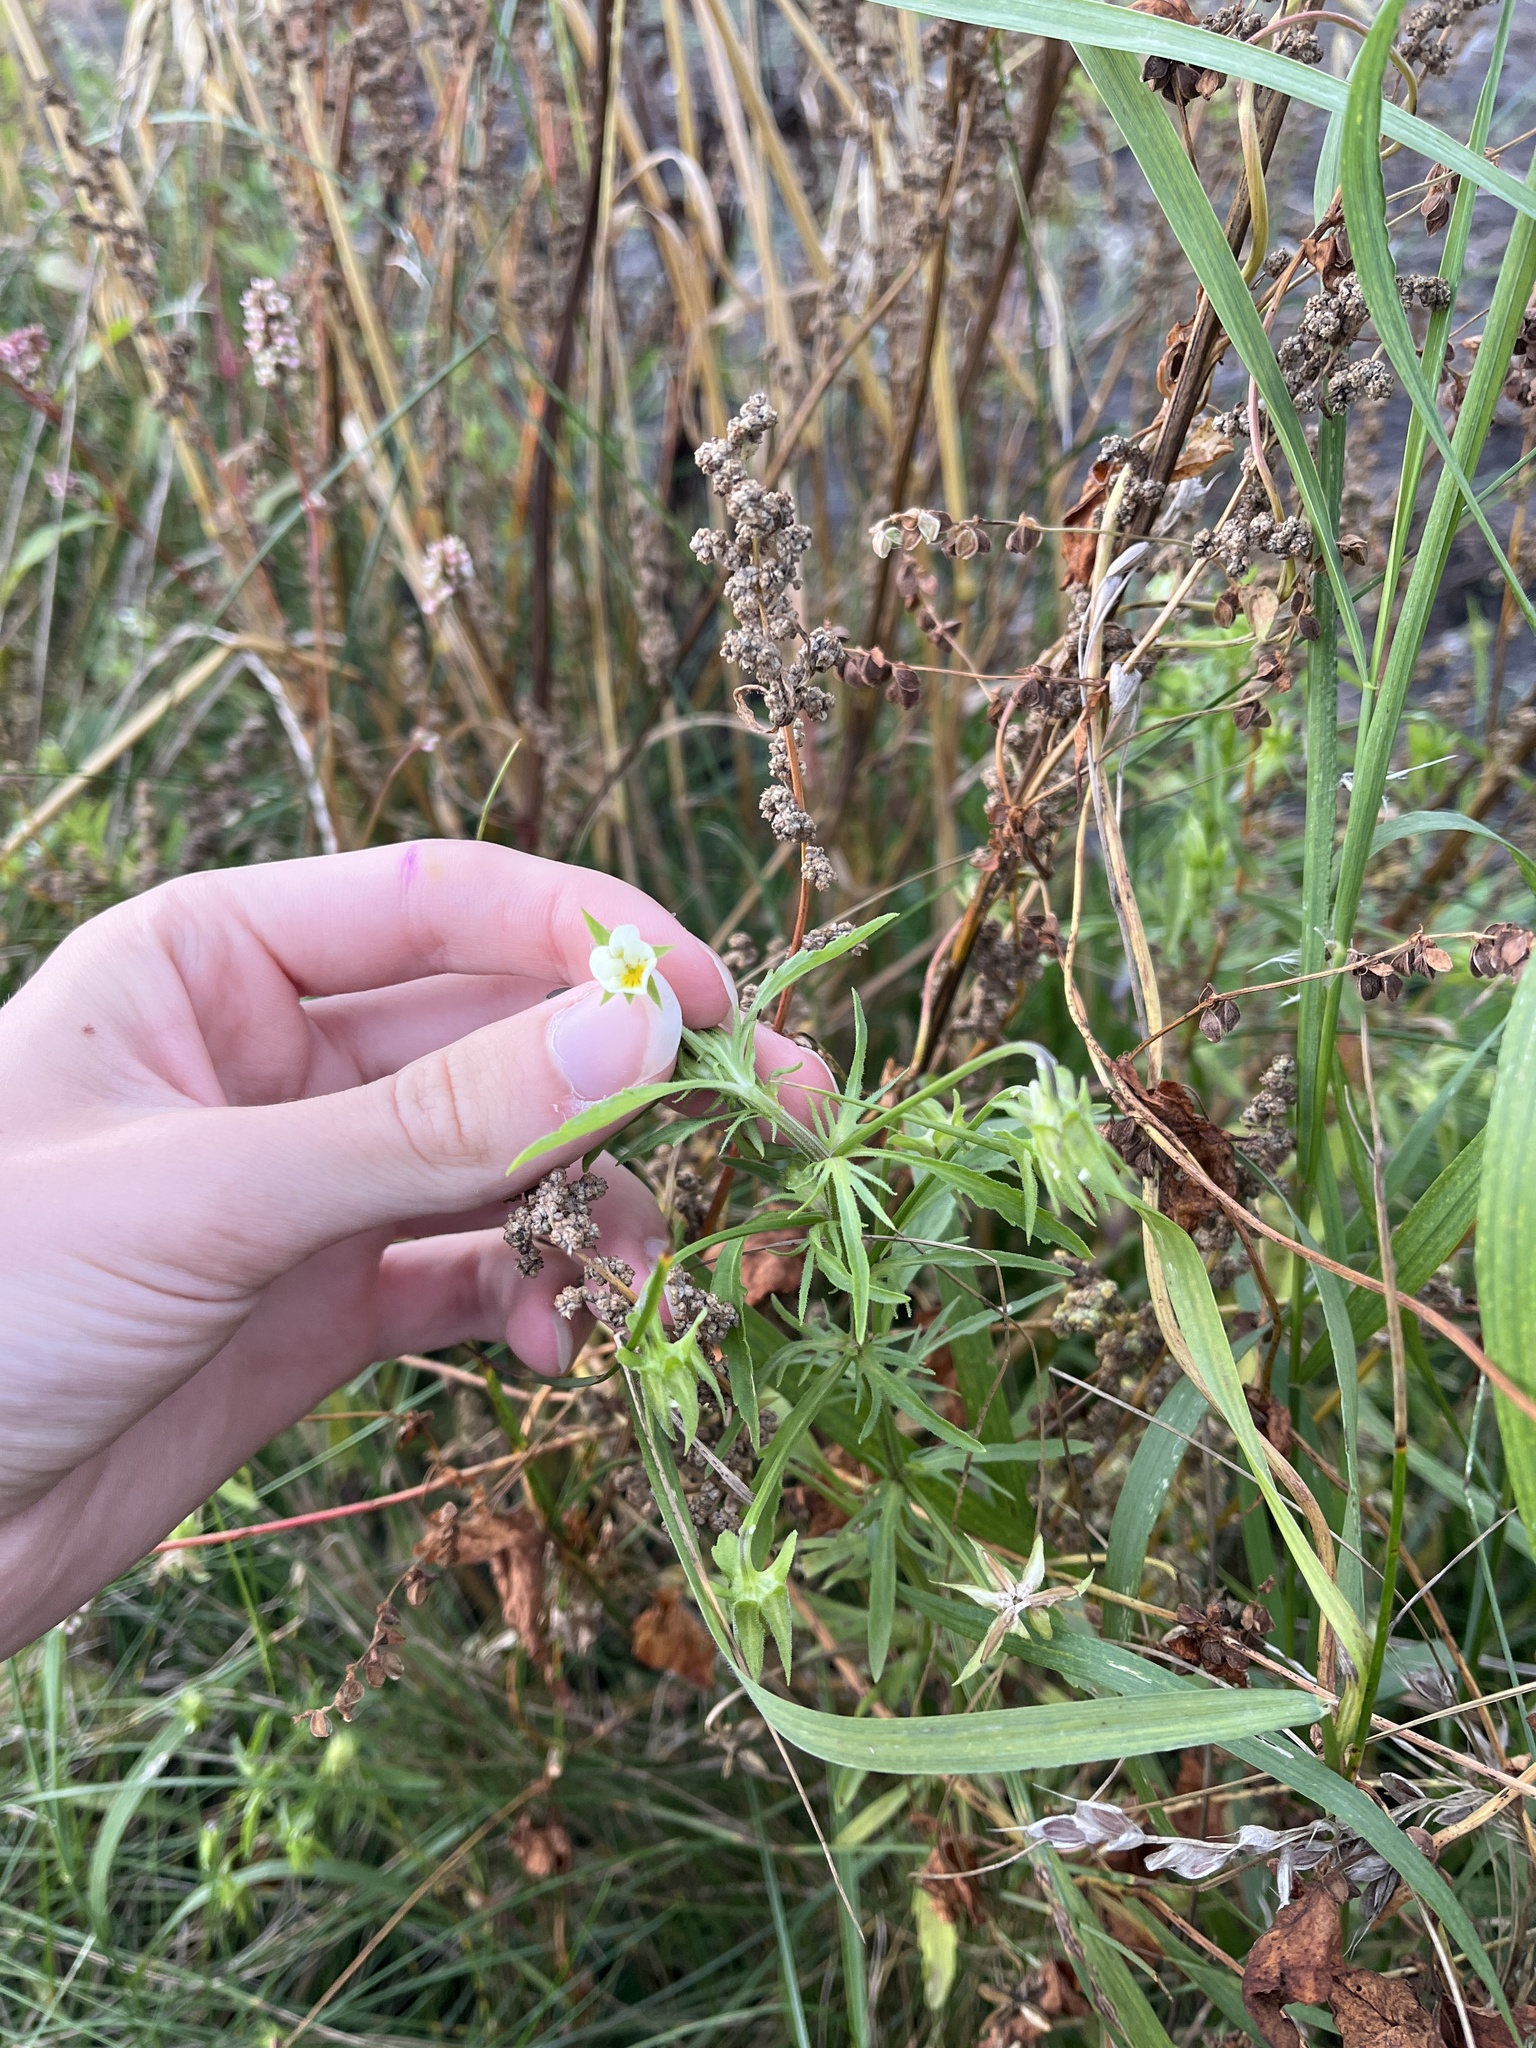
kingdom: Plantae
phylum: Tracheophyta
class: Magnoliopsida
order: Malpighiales
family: Violaceae
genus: Viola
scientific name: Viola arvensis
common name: Field pansy
